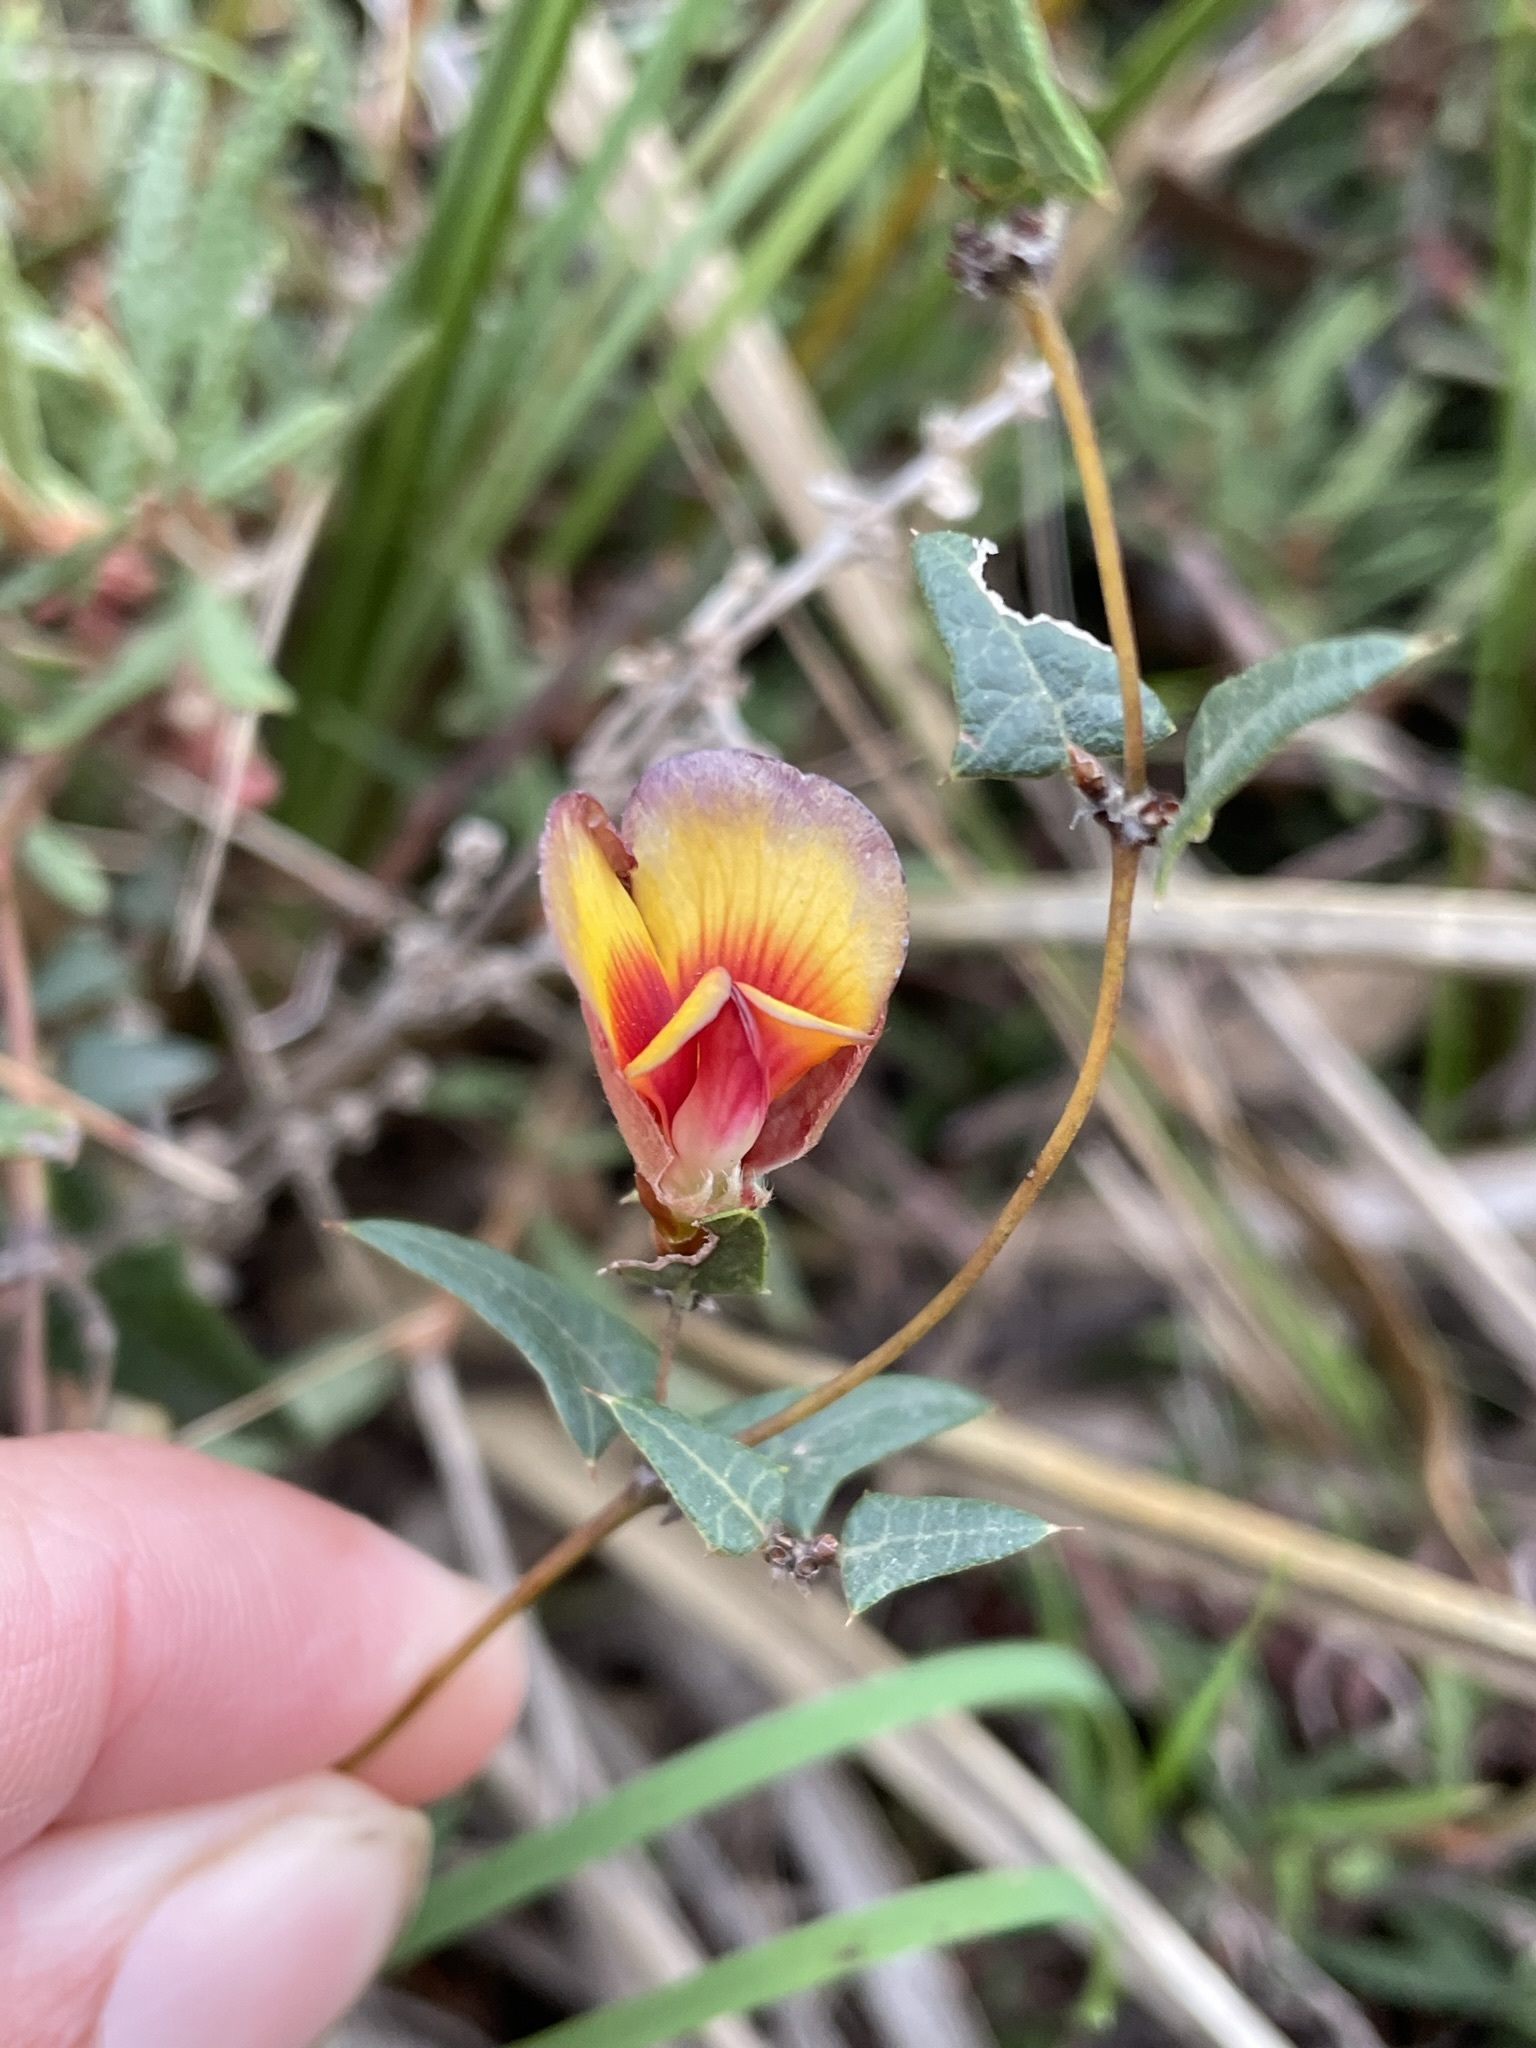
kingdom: Plantae
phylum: Tracheophyta
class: Magnoliopsida
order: Fabales
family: Fabaceae
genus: Platylobium
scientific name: Platylobium obtusangulum
